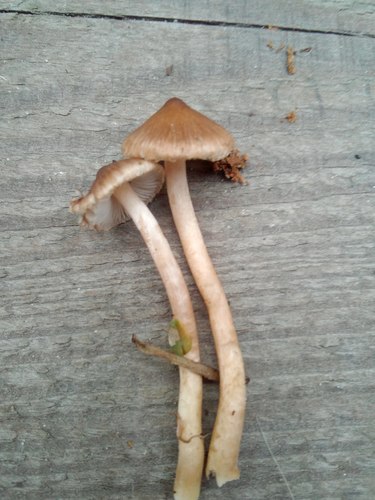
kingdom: Fungi
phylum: Basidiomycota
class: Agaricomycetes
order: Agaricales
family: Inocybaceae
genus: Inocybe
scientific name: Inocybe
